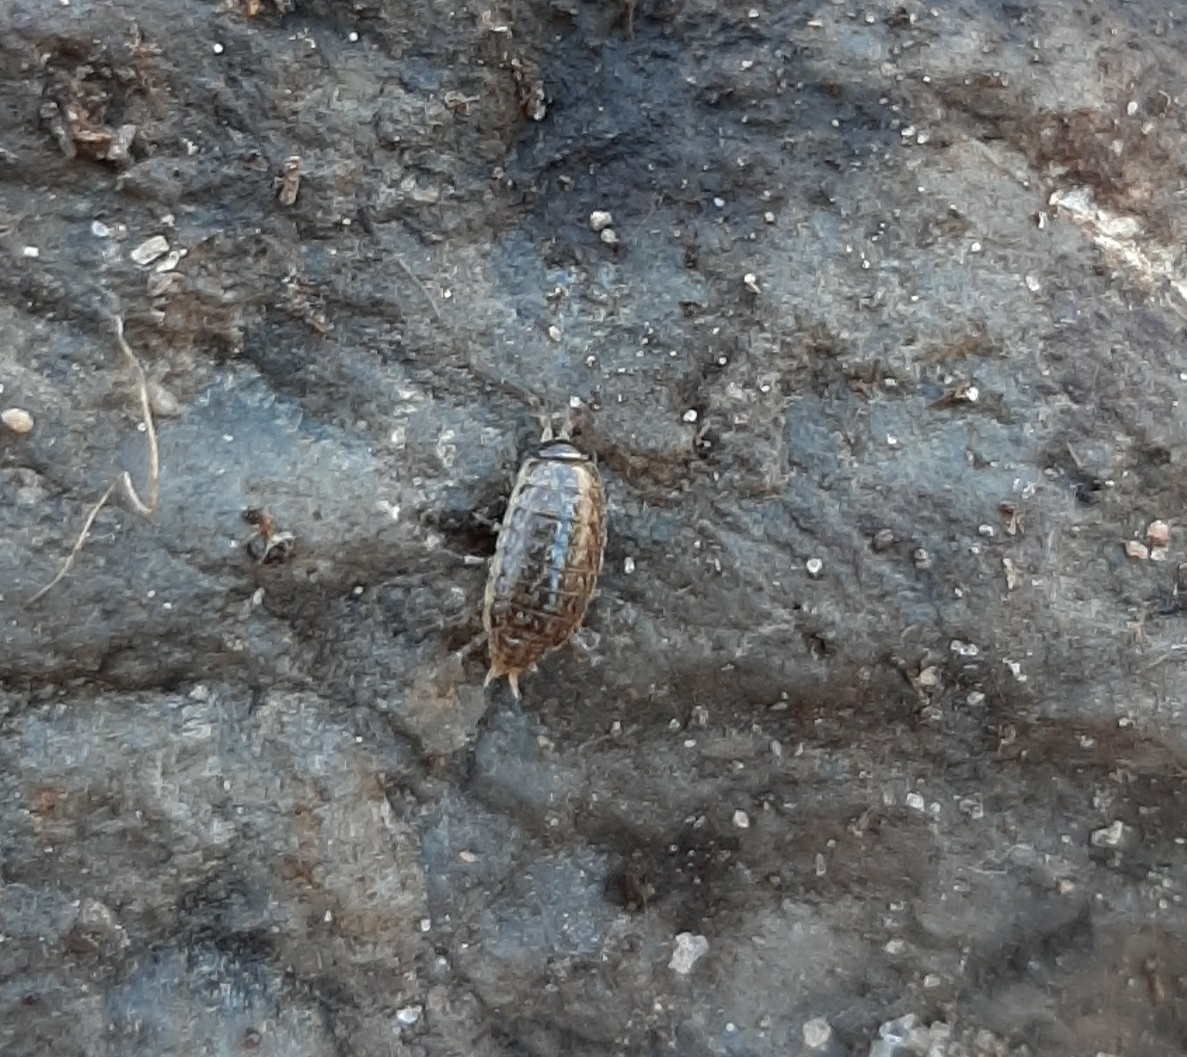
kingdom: Animalia
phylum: Arthropoda
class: Malacostraca
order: Isopoda
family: Philosciidae
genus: Philoscia
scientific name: Philoscia muscorum
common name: Common striped woodlouse
